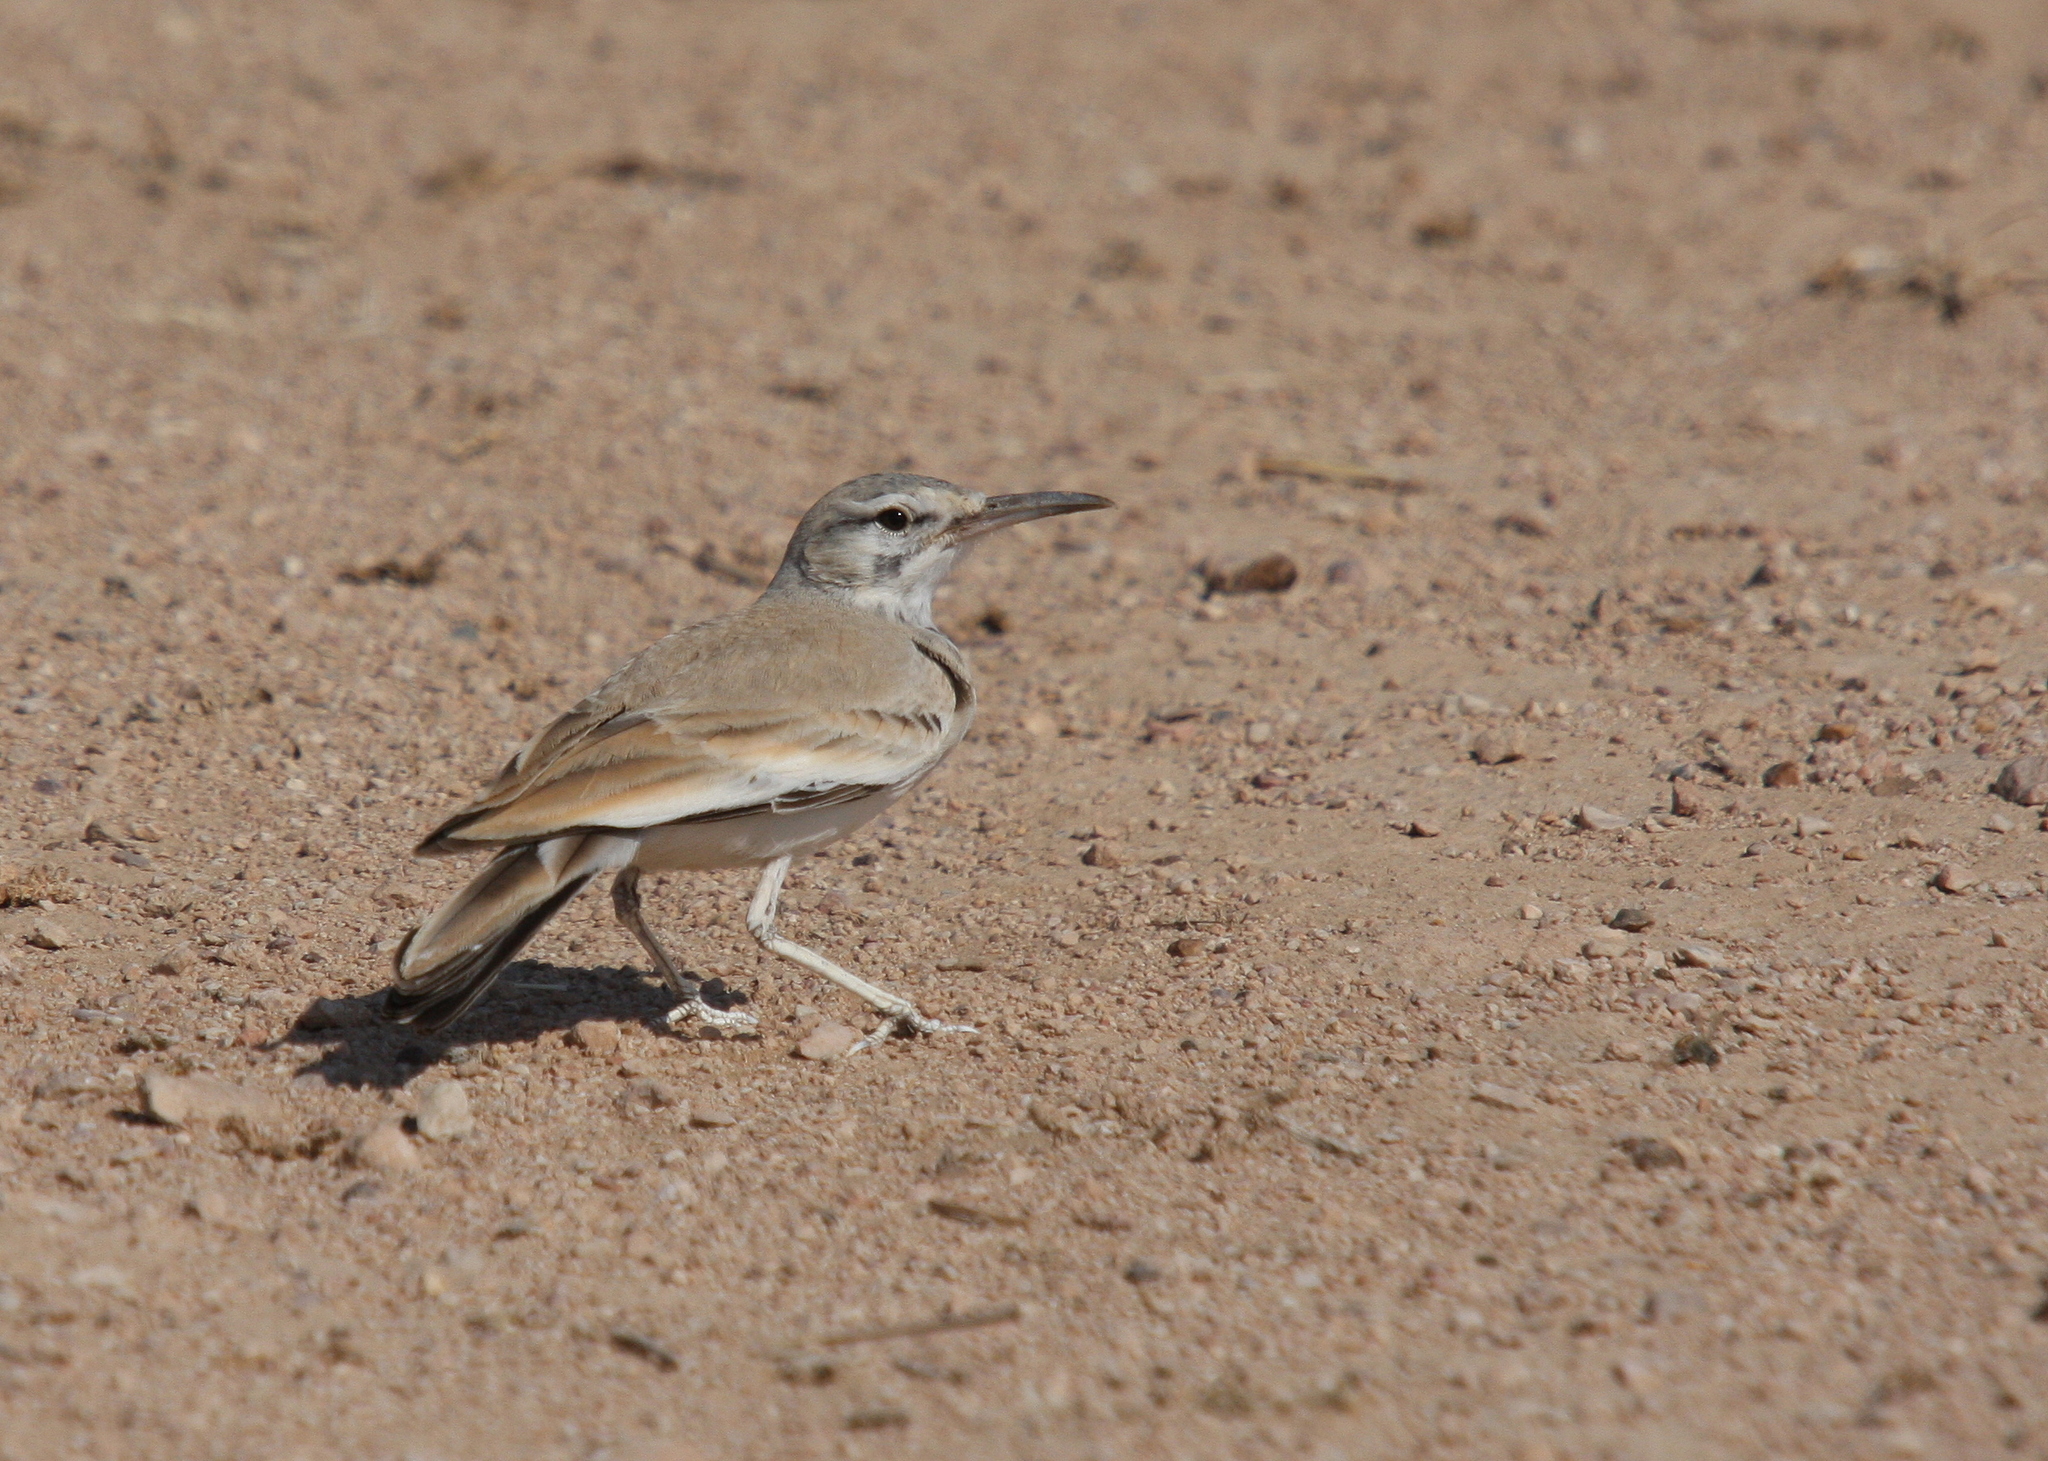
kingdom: Animalia
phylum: Chordata
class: Aves
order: Passeriformes
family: Alaudidae
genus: Alaemon
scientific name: Alaemon alaudipes
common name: Greater hoopoe-lark
